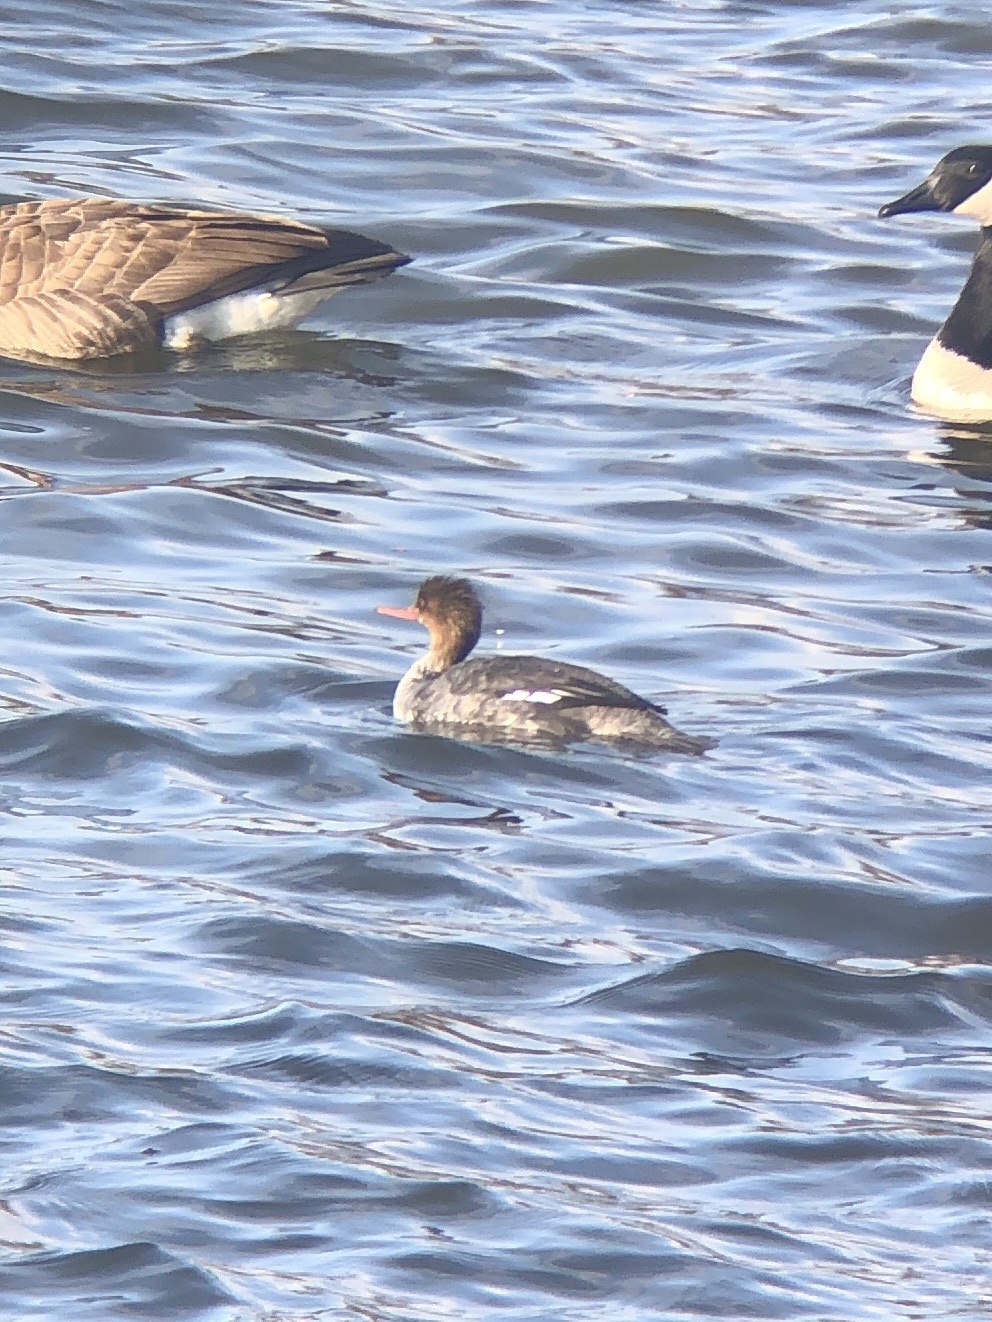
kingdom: Animalia
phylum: Chordata
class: Aves
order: Anseriformes
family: Anatidae
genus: Mergus
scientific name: Mergus serrator
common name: Red-breasted merganser
